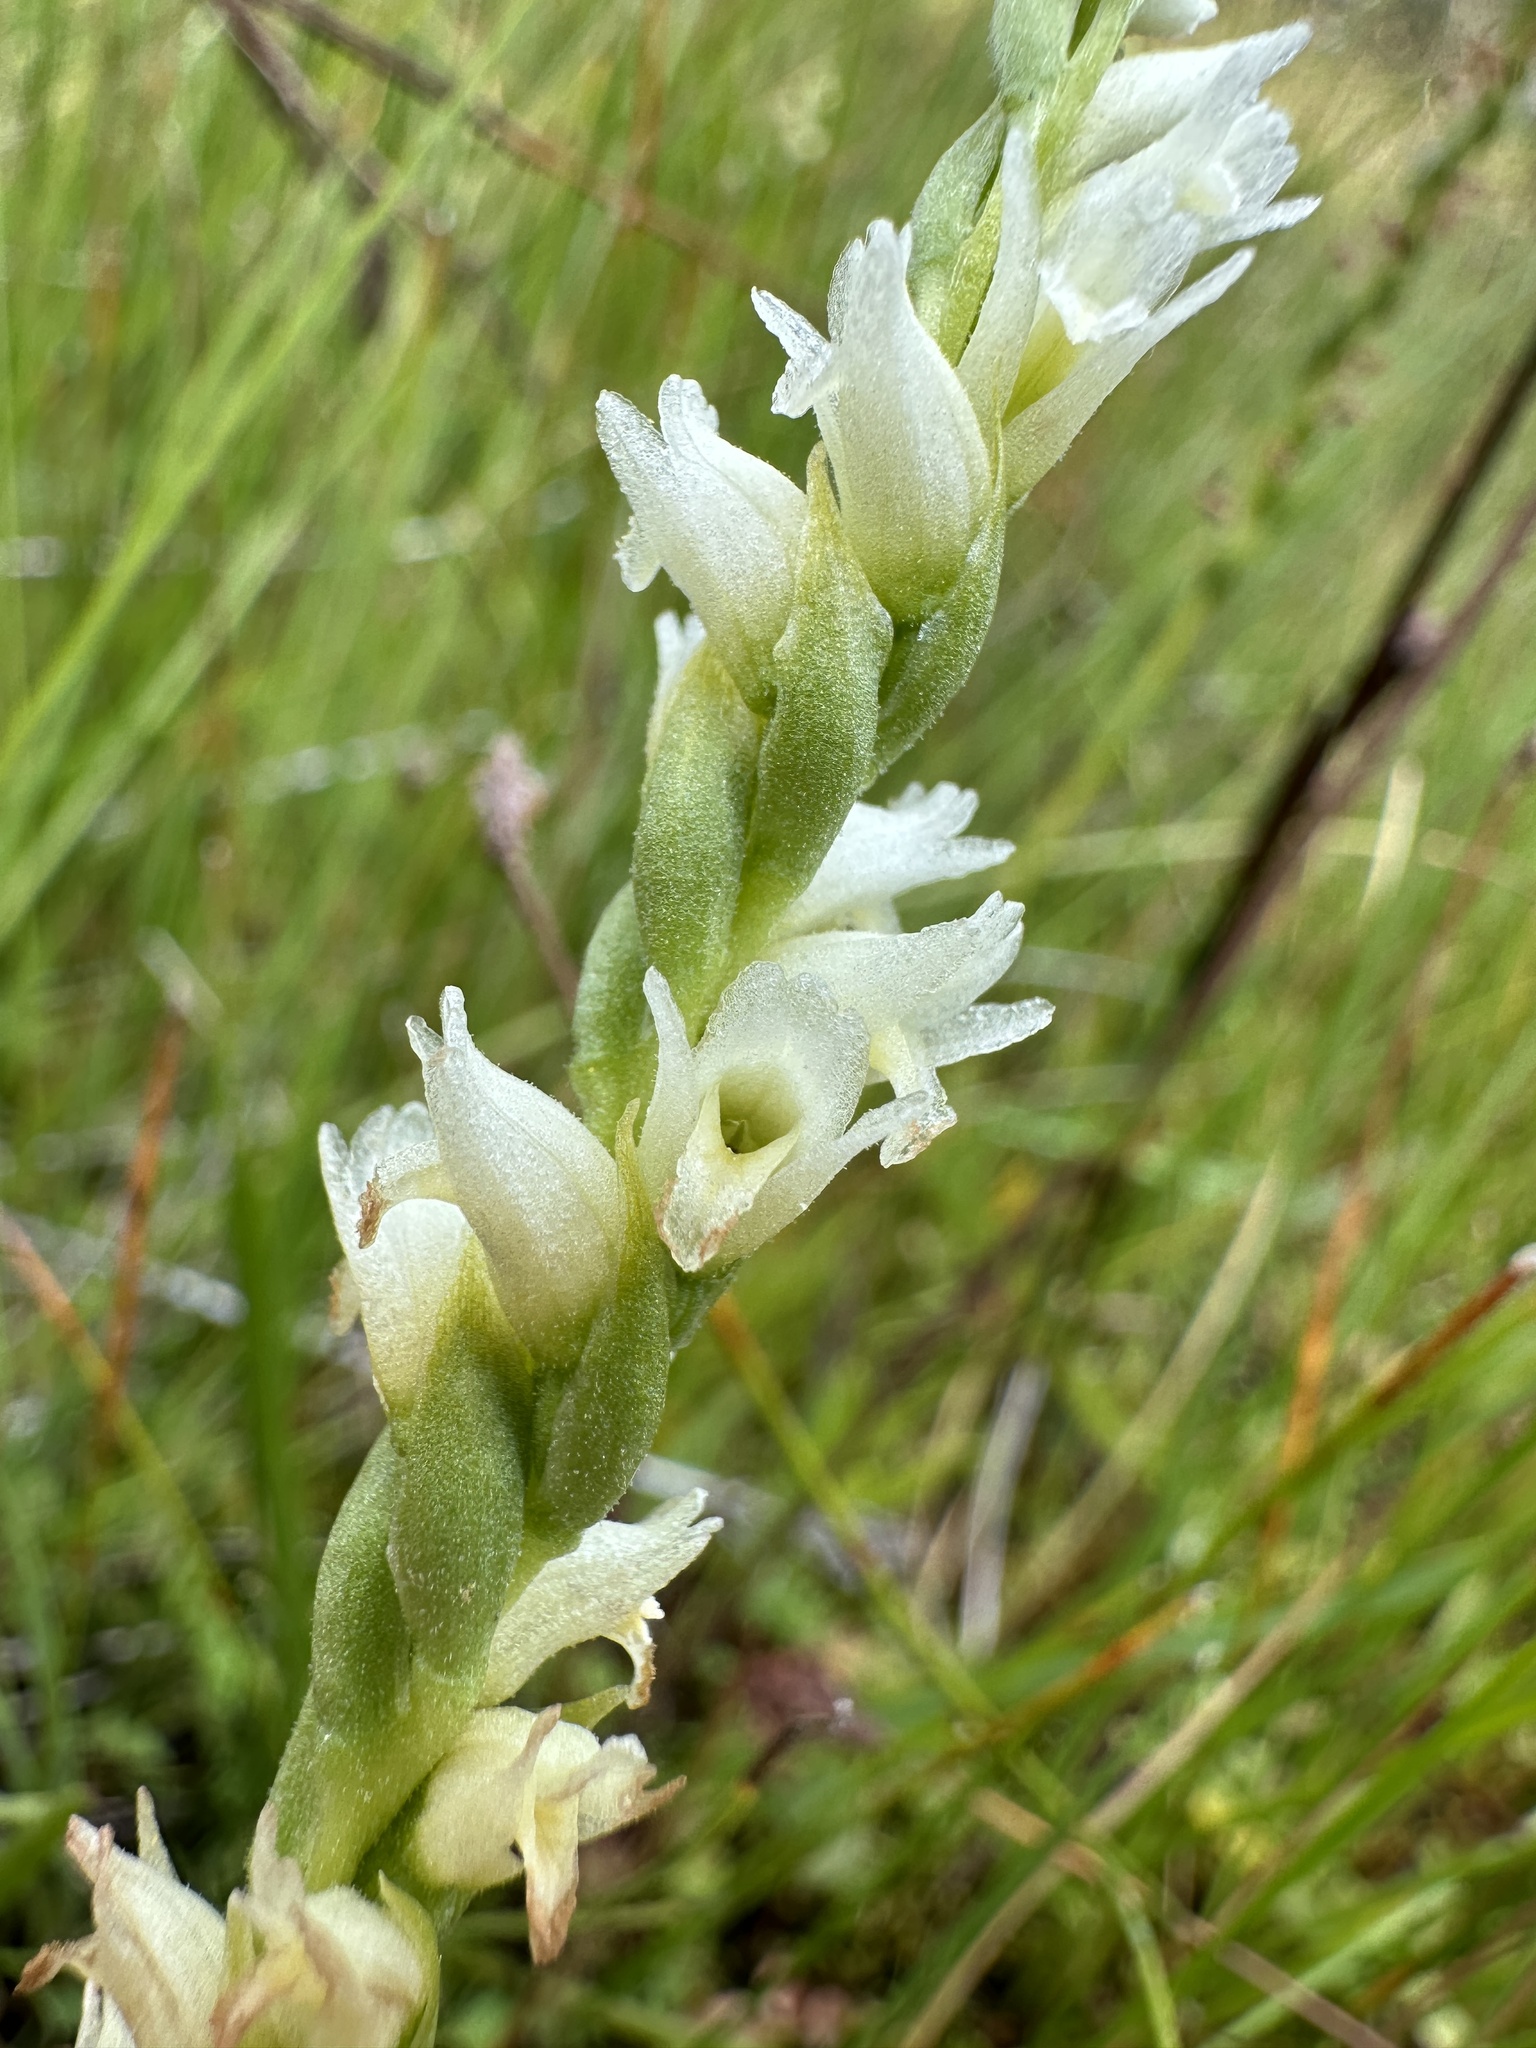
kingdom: Plantae
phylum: Tracheophyta
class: Liliopsida
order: Asparagales
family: Orchidaceae
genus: Spiranthes
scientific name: Spiranthes perexilis
